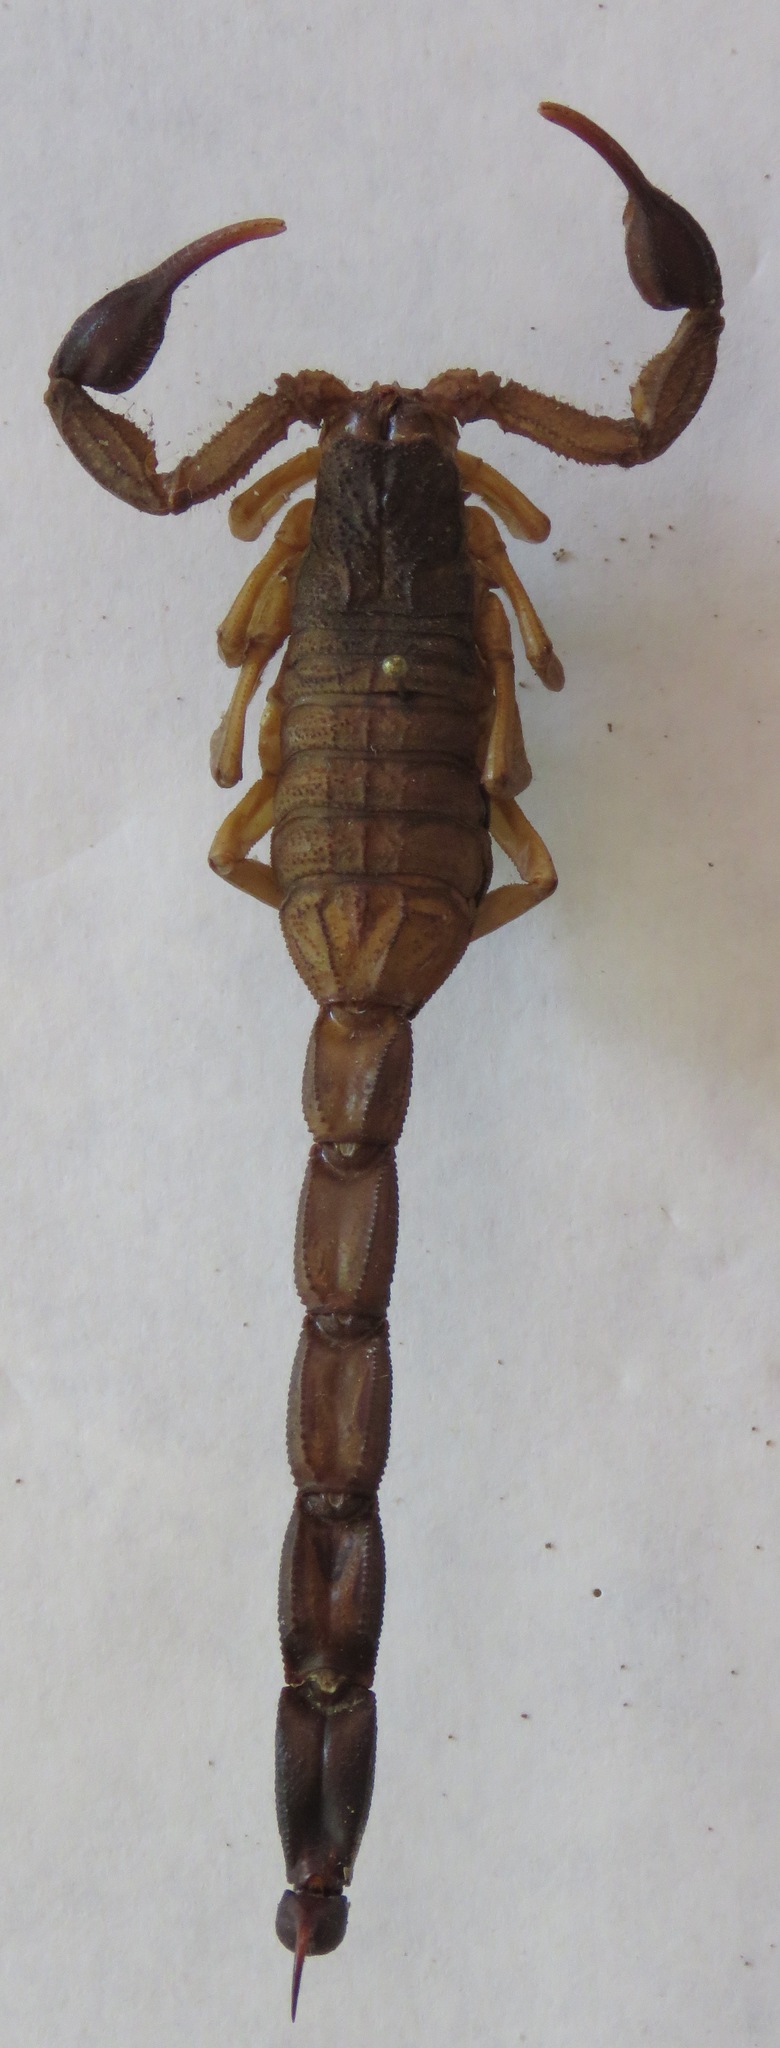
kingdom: Animalia
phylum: Arthropoda
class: Arachnida
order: Scorpiones
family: Buthidae
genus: Centruroides
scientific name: Centruroides edwardsii
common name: Scorpions
